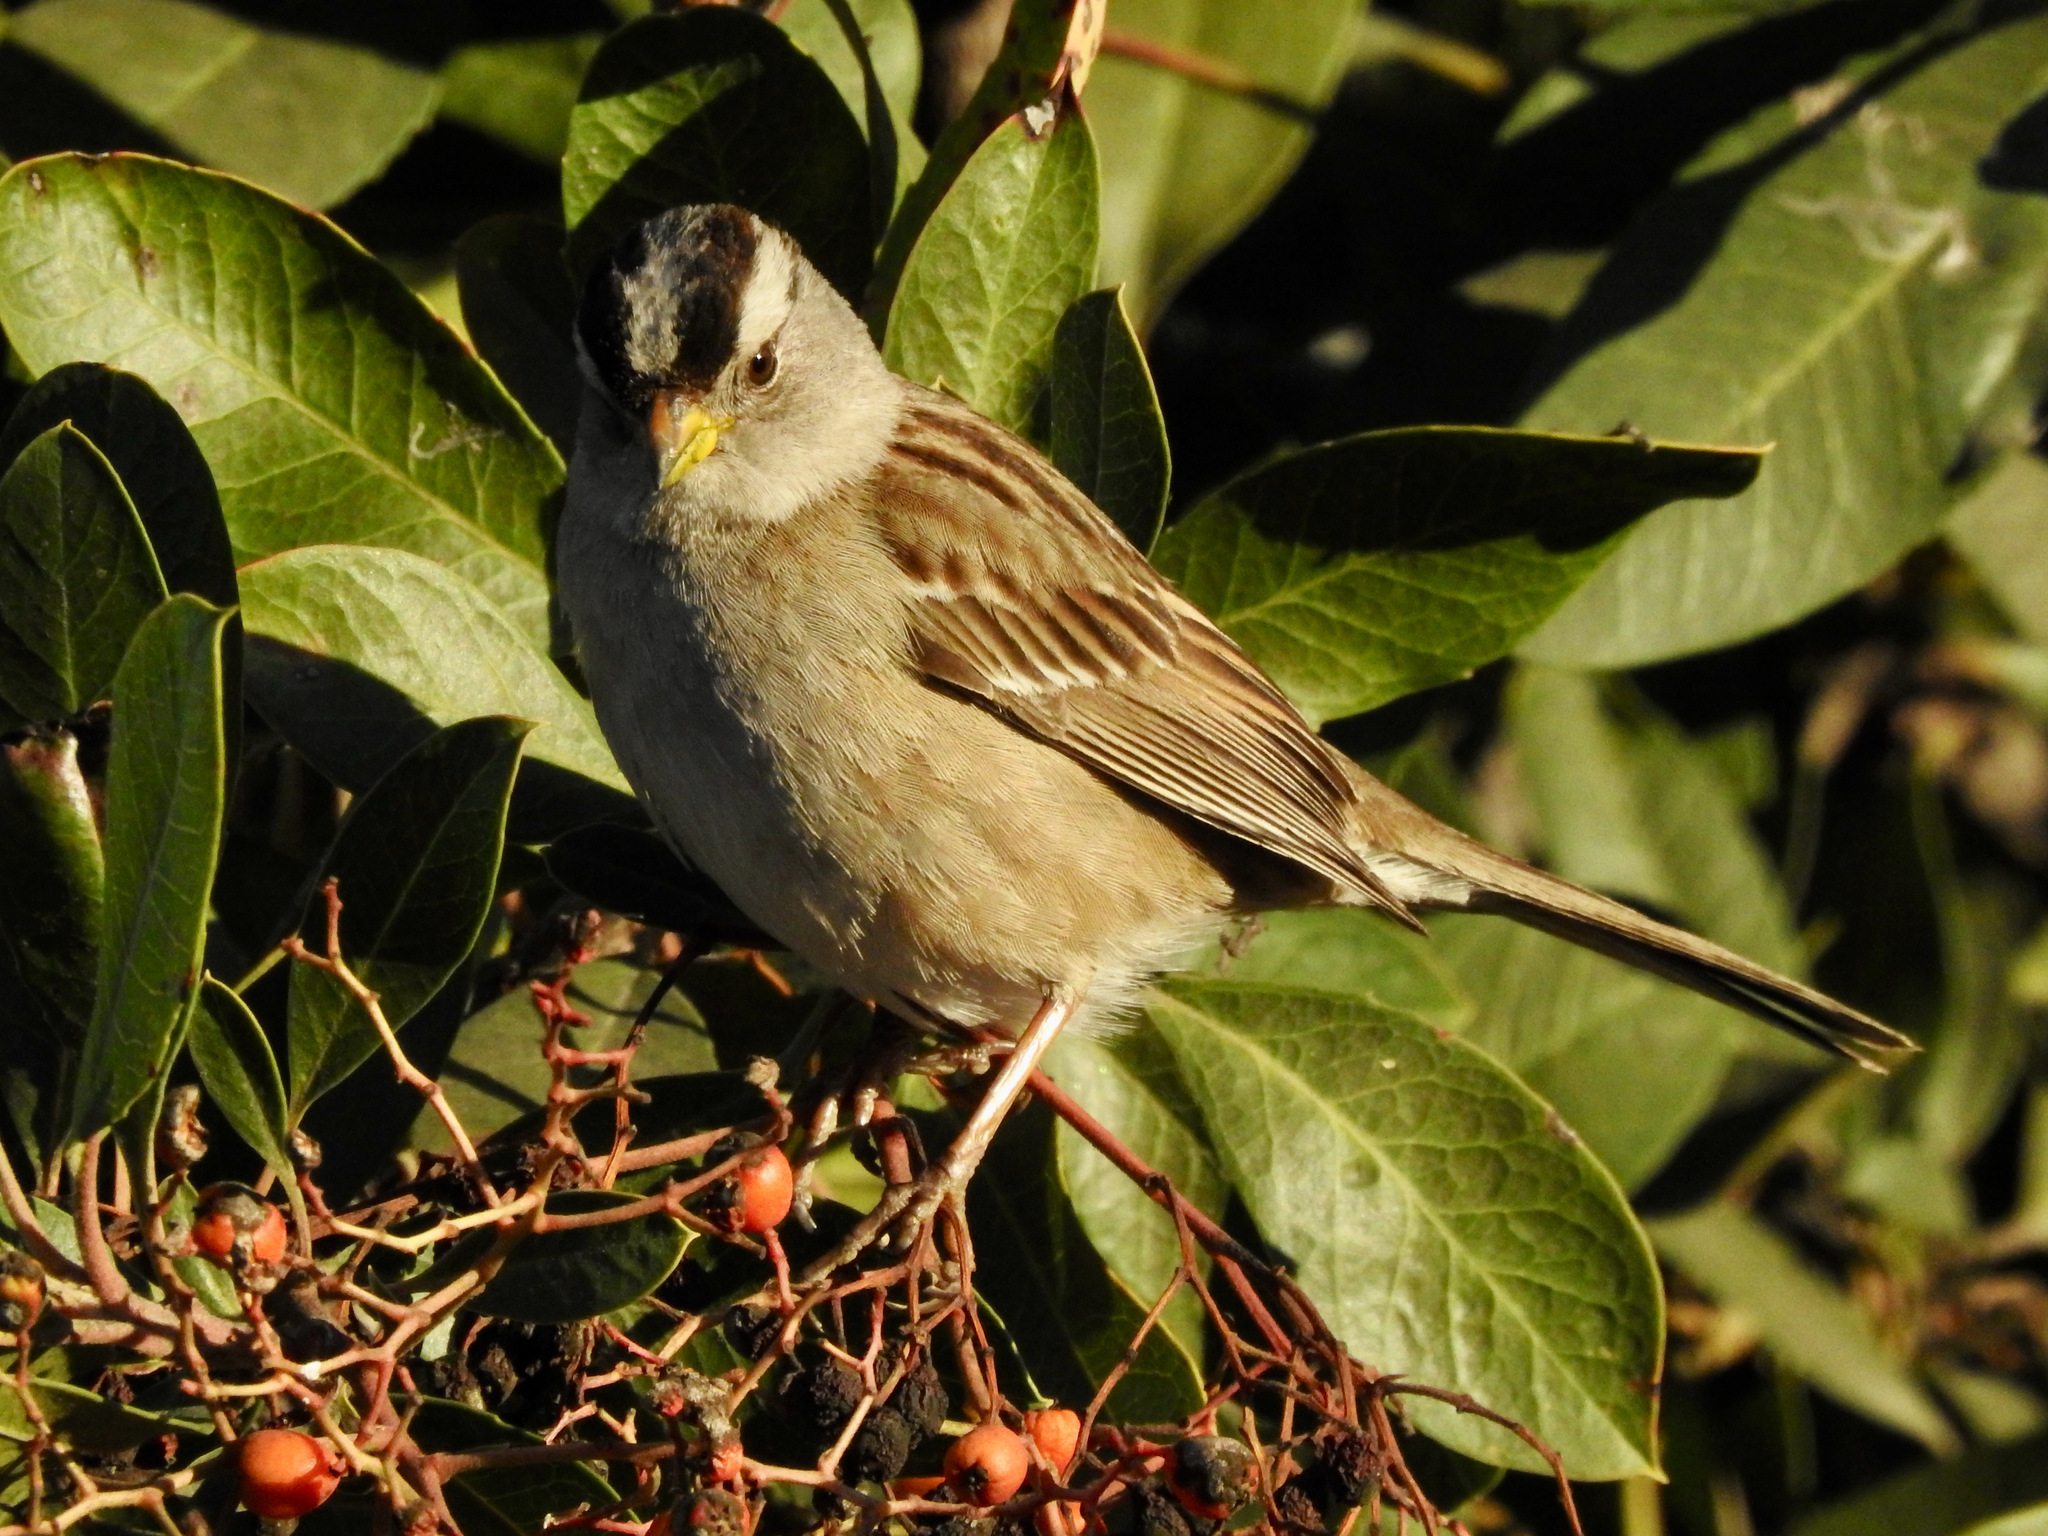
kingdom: Animalia
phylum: Chordata
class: Aves
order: Passeriformes
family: Passerellidae
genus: Zonotrichia
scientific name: Zonotrichia leucophrys
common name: White-crowned sparrow
